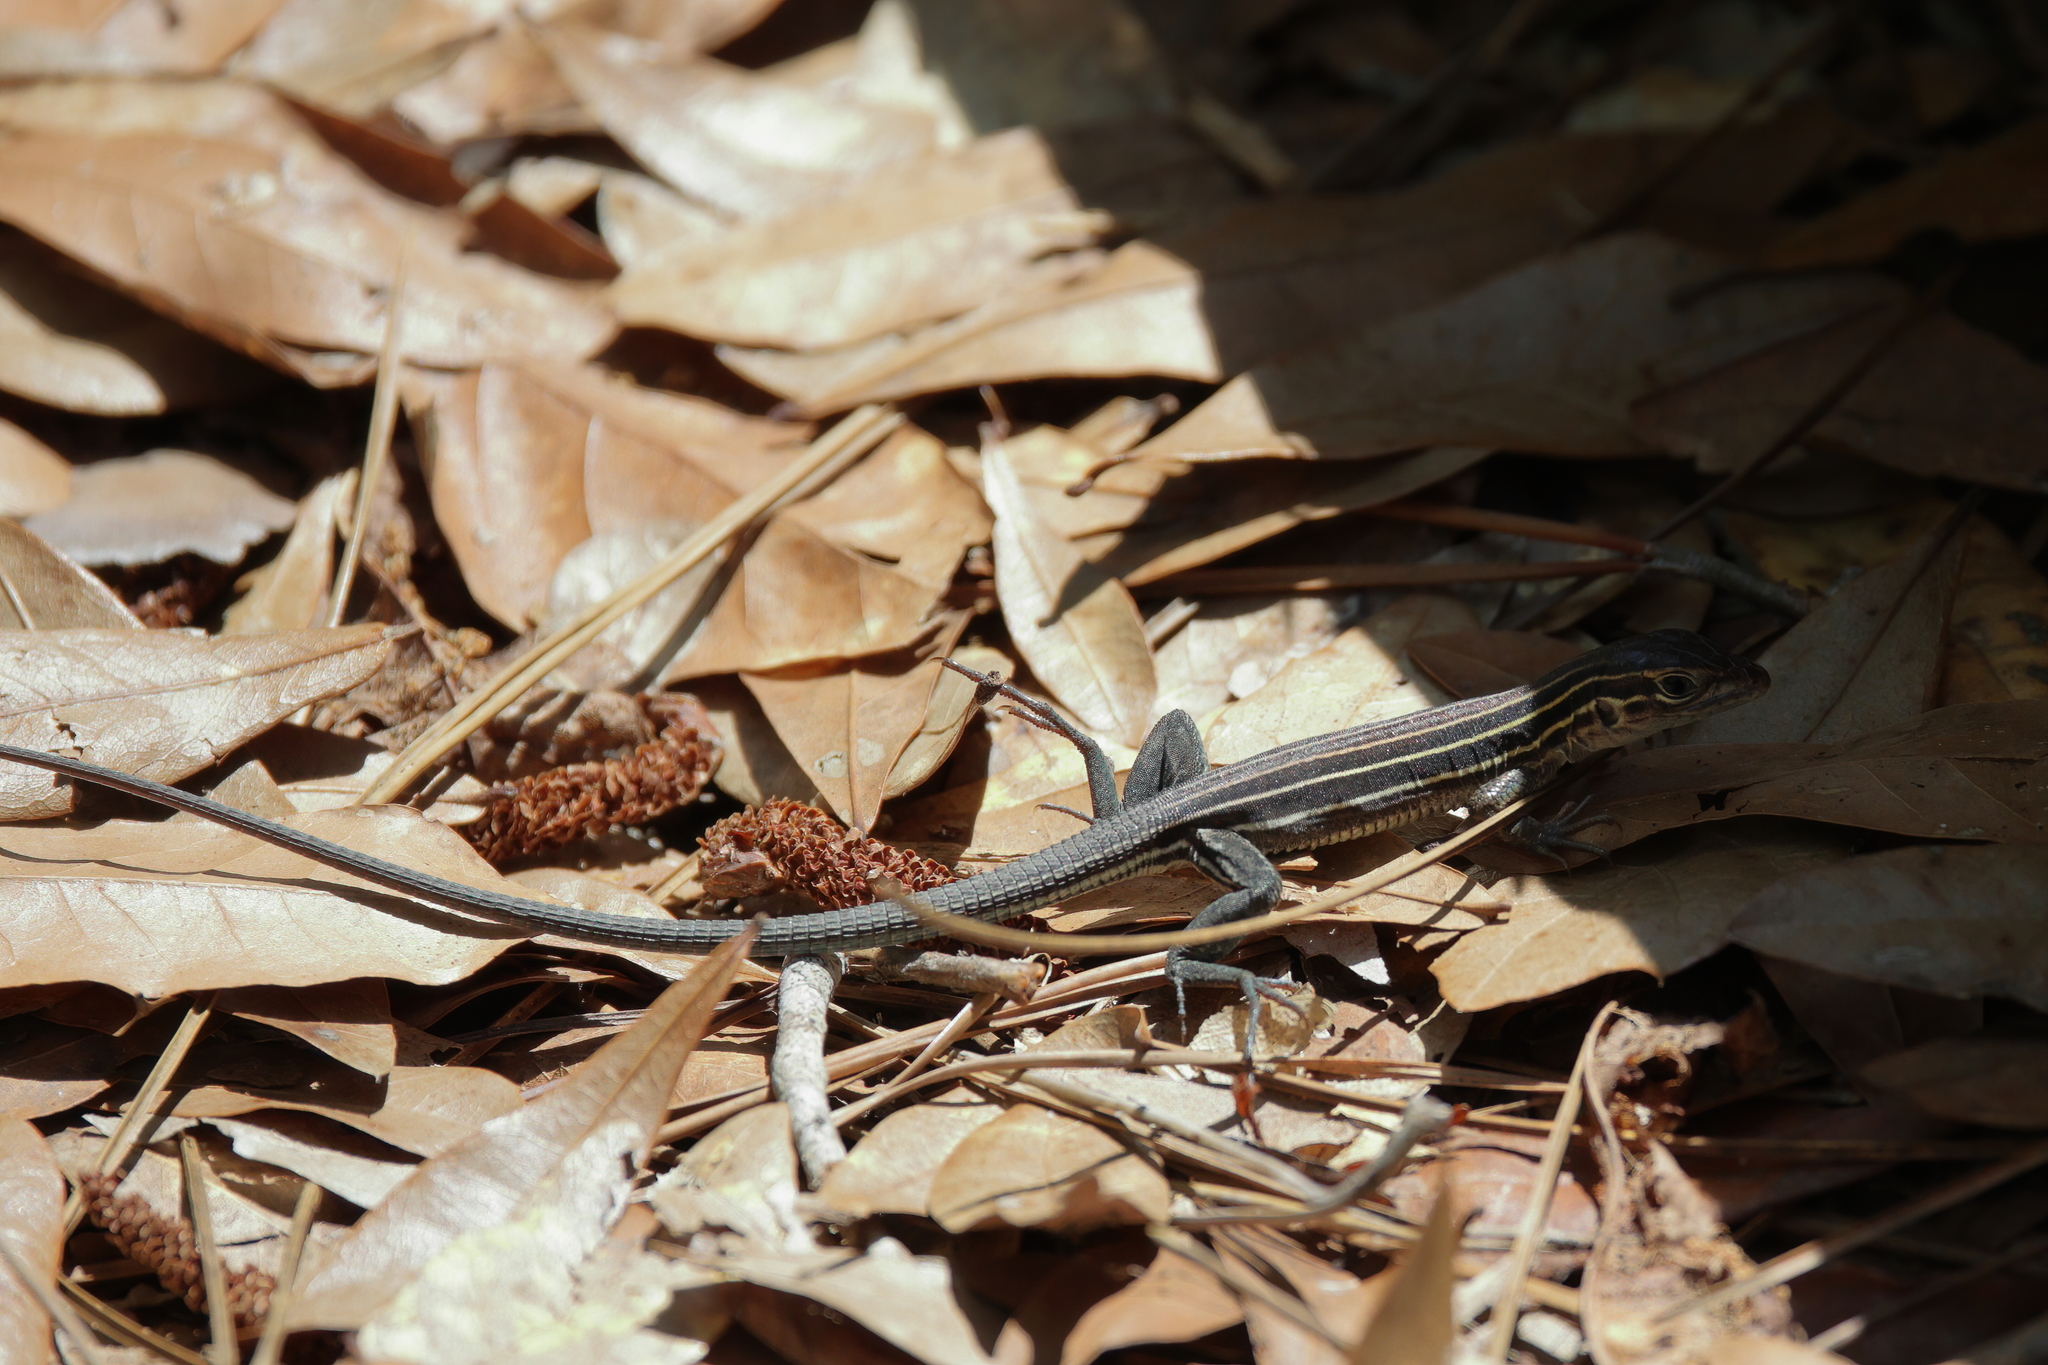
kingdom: Animalia
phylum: Chordata
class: Squamata
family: Teiidae
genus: Aspidoscelis
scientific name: Aspidoscelis sexlineatus
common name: Six-lined racerunner
